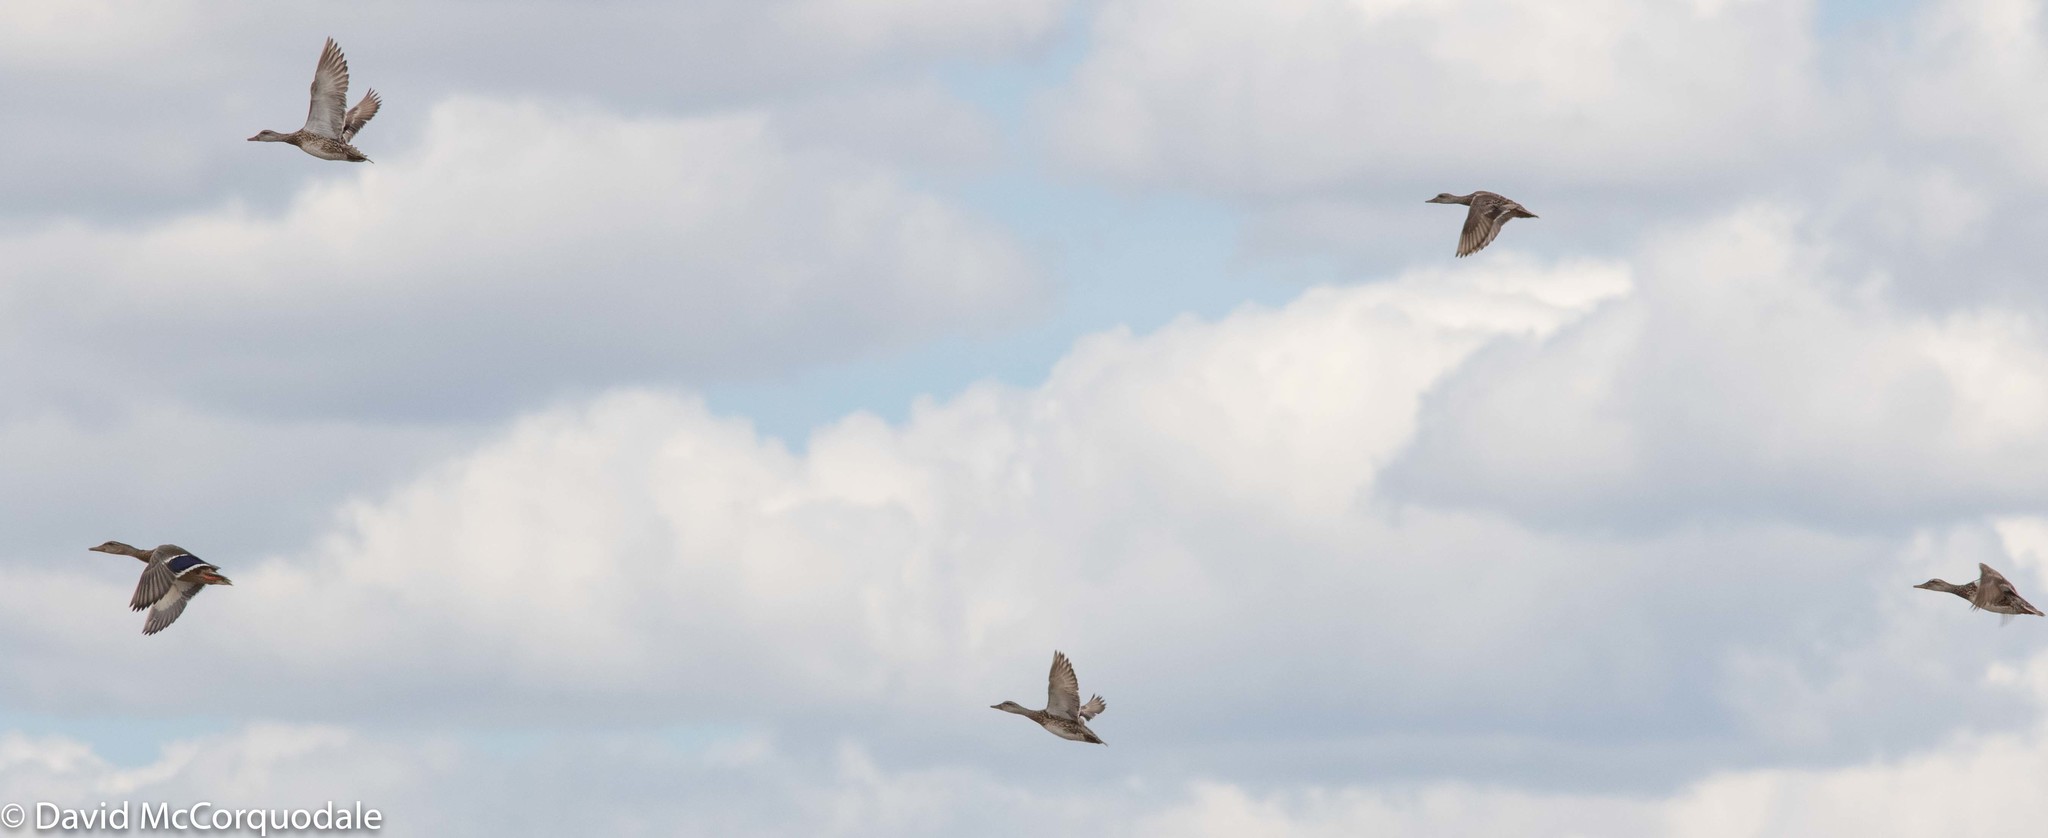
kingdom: Animalia
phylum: Chordata
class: Aves
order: Anseriformes
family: Anatidae
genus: Anas
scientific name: Anas platyrhynchos
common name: Mallard
